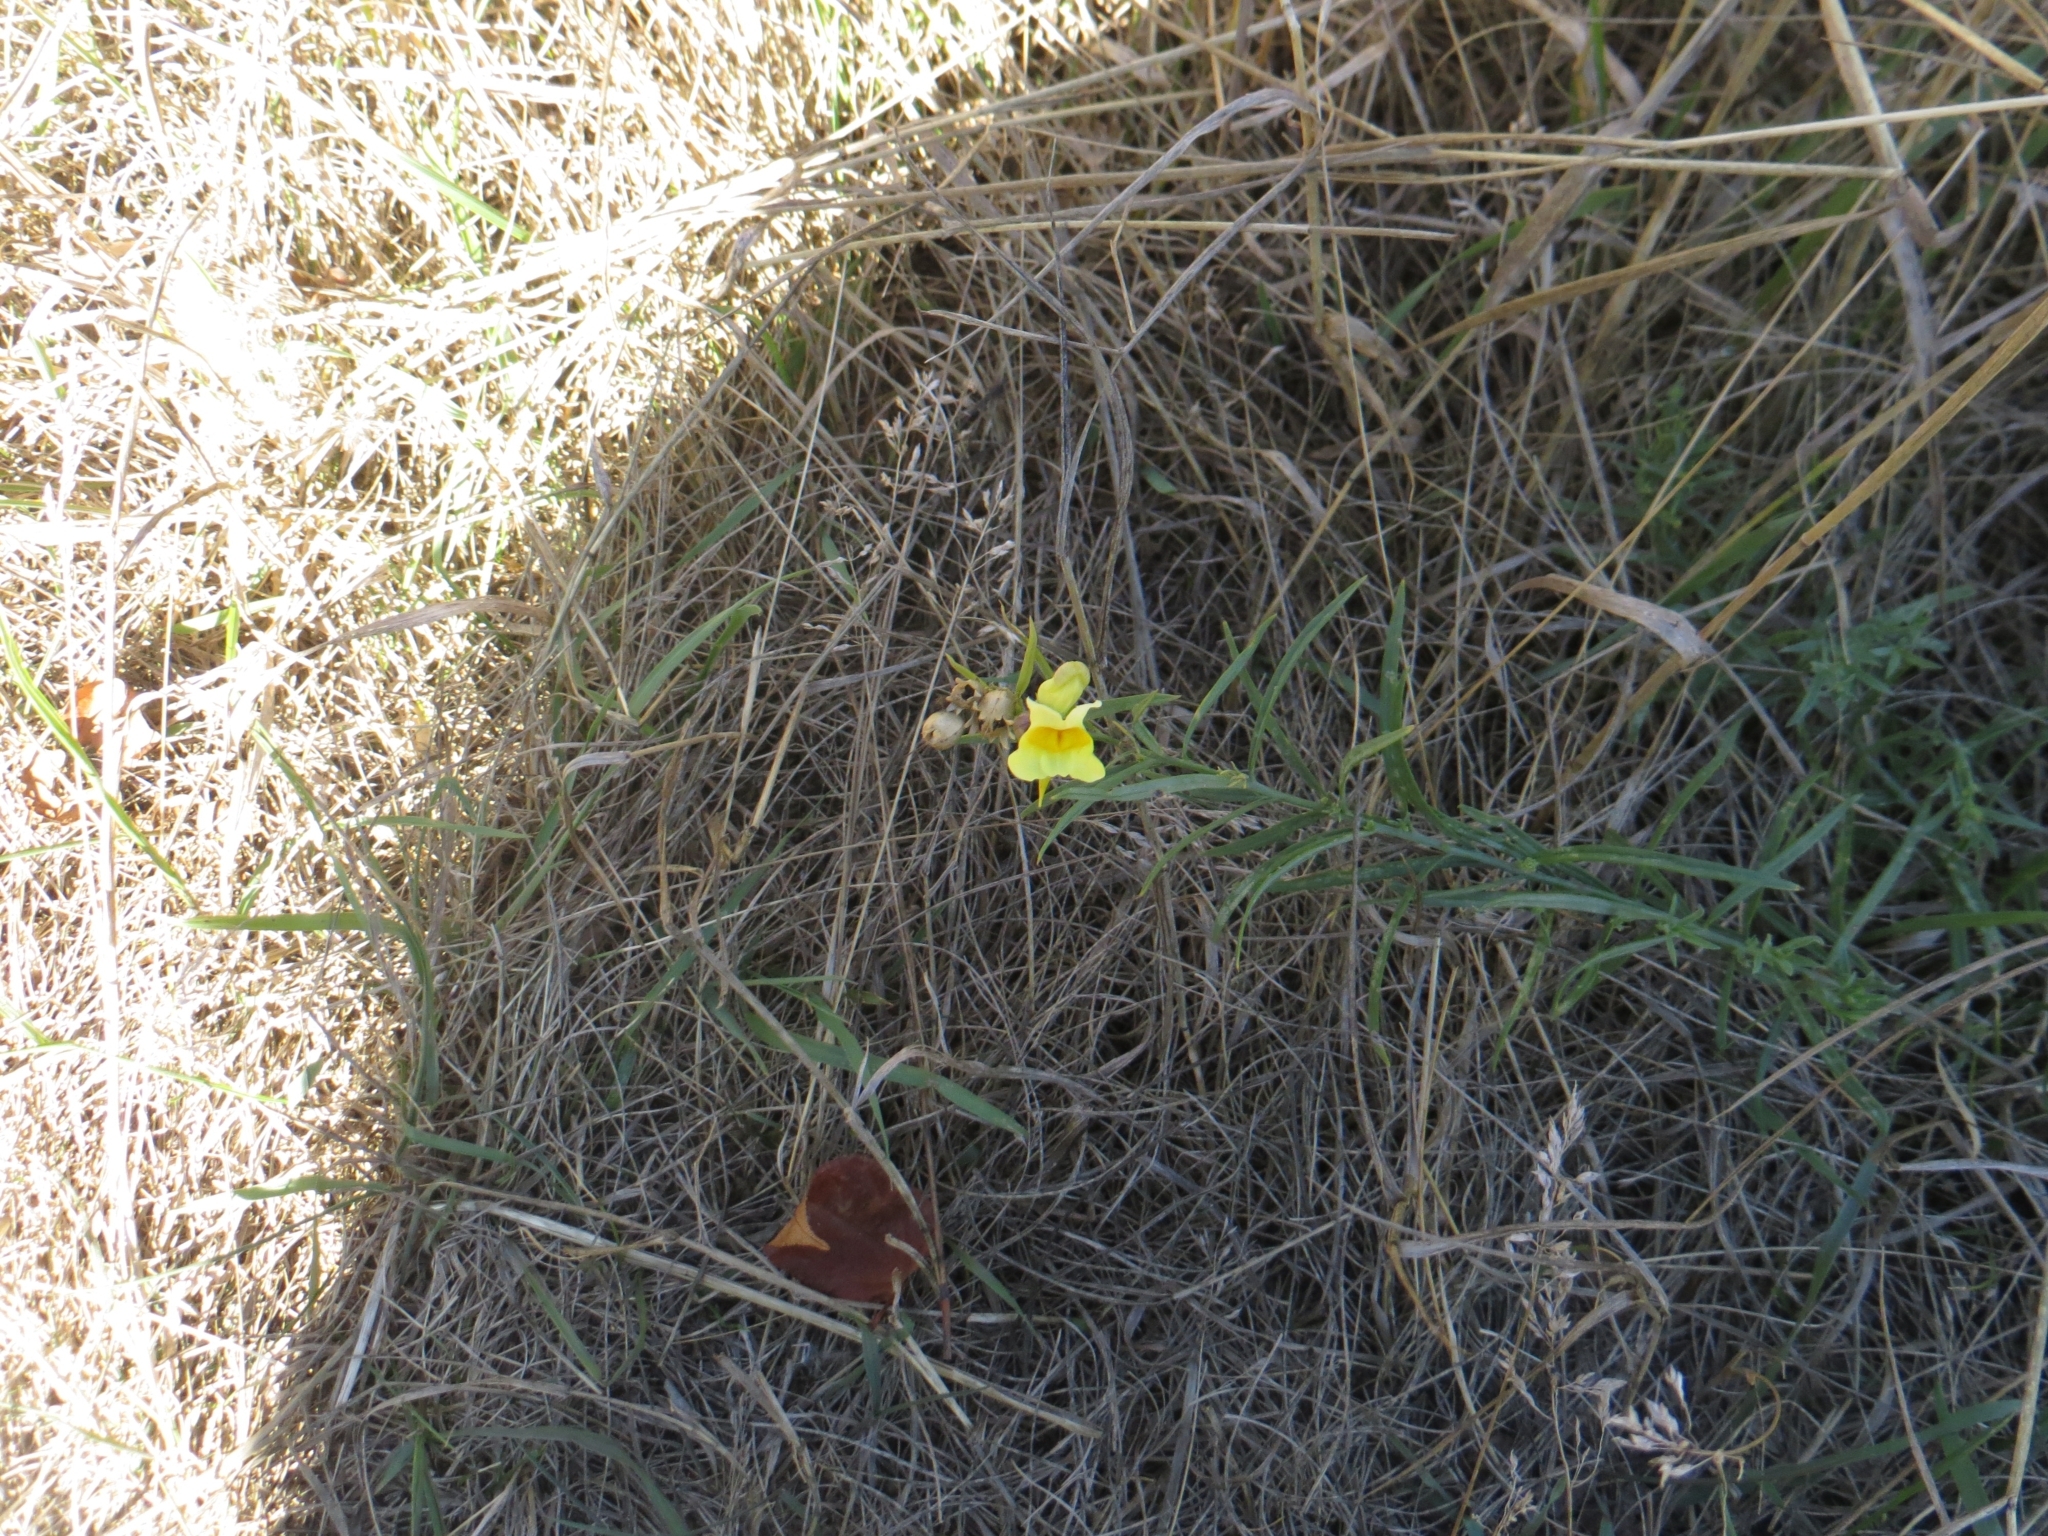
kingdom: Plantae
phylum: Tracheophyta
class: Magnoliopsida
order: Lamiales
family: Plantaginaceae
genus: Linaria
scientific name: Linaria vulgaris
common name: Butter and eggs
